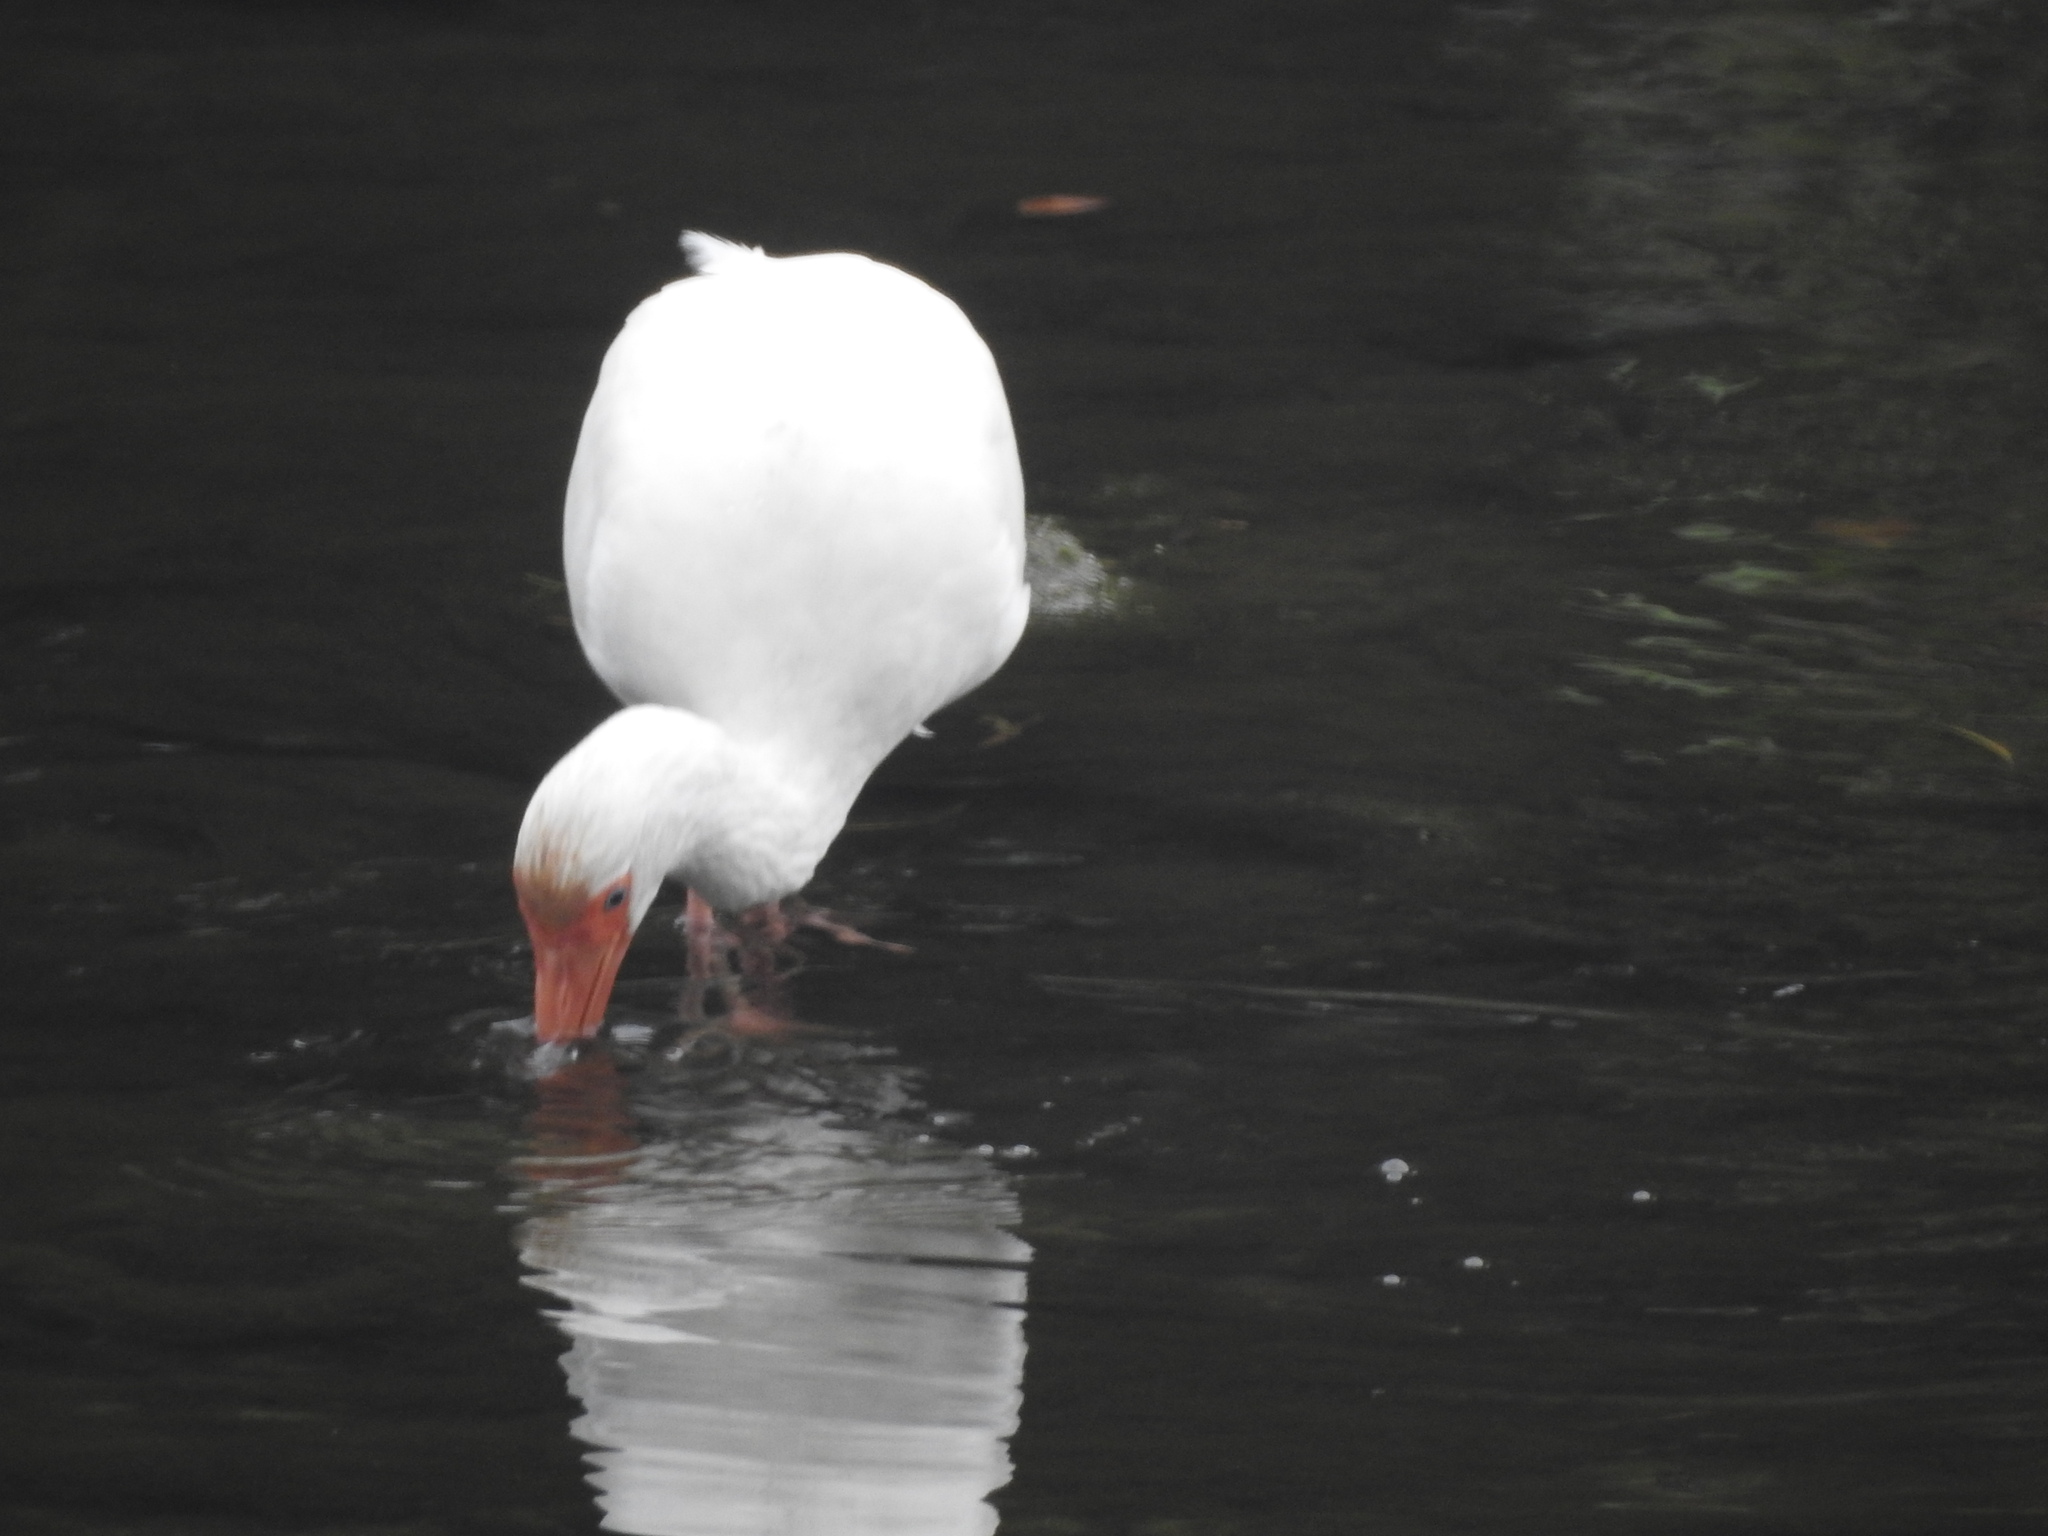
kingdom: Animalia
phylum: Chordata
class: Aves
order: Pelecaniformes
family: Threskiornithidae
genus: Eudocimus
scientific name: Eudocimus albus
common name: White ibis
